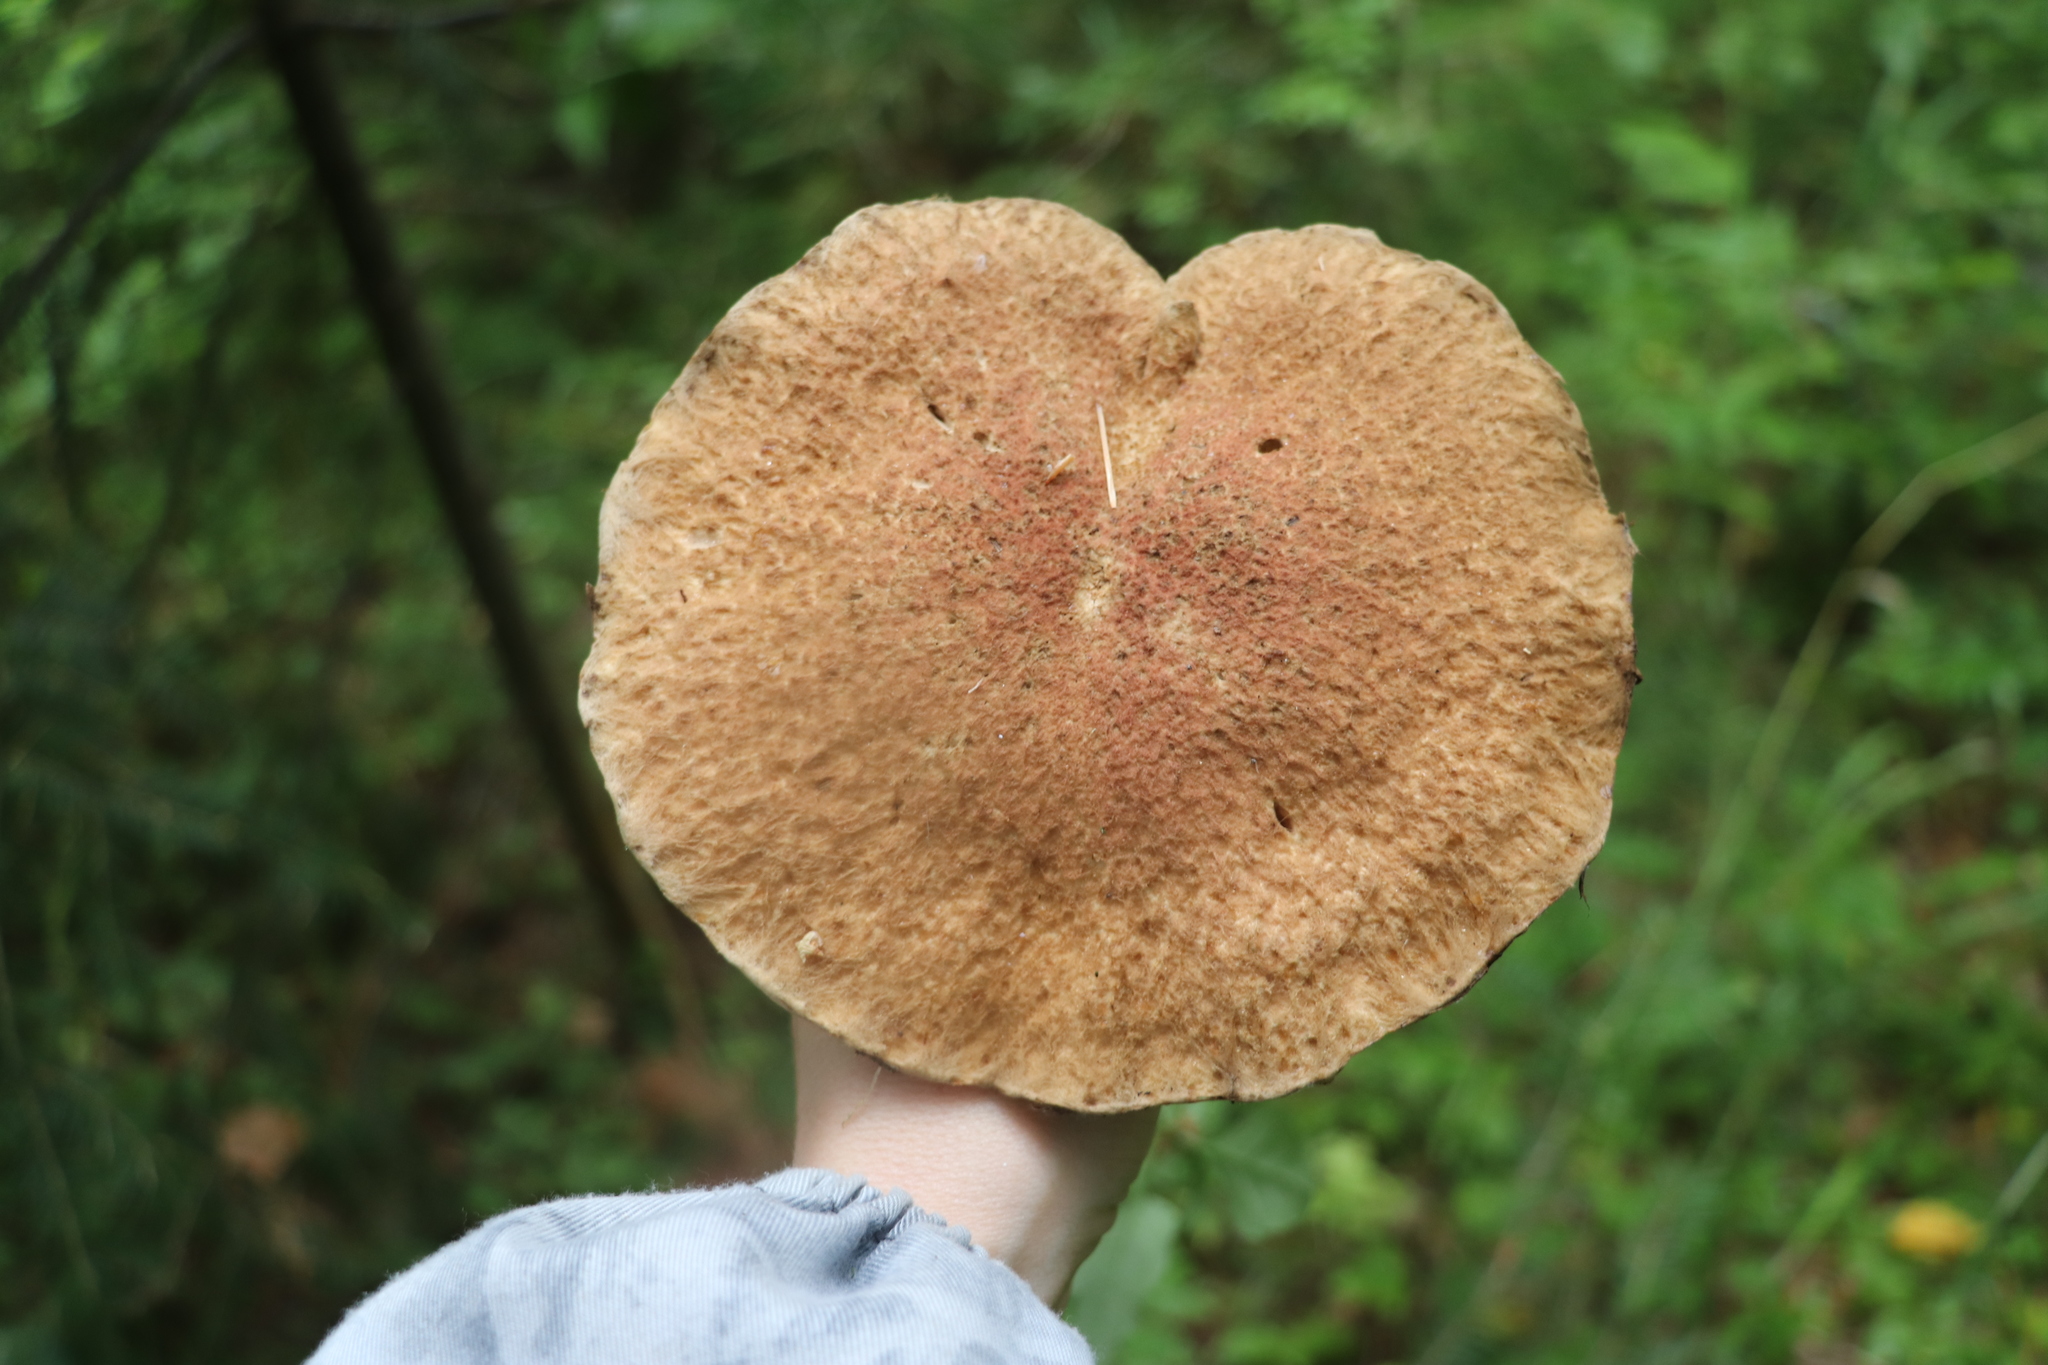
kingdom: Fungi
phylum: Basidiomycota
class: Agaricomycetes
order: Boletales
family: Suillaceae
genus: Suillus
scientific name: Suillus spraguei
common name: Painted suillus
